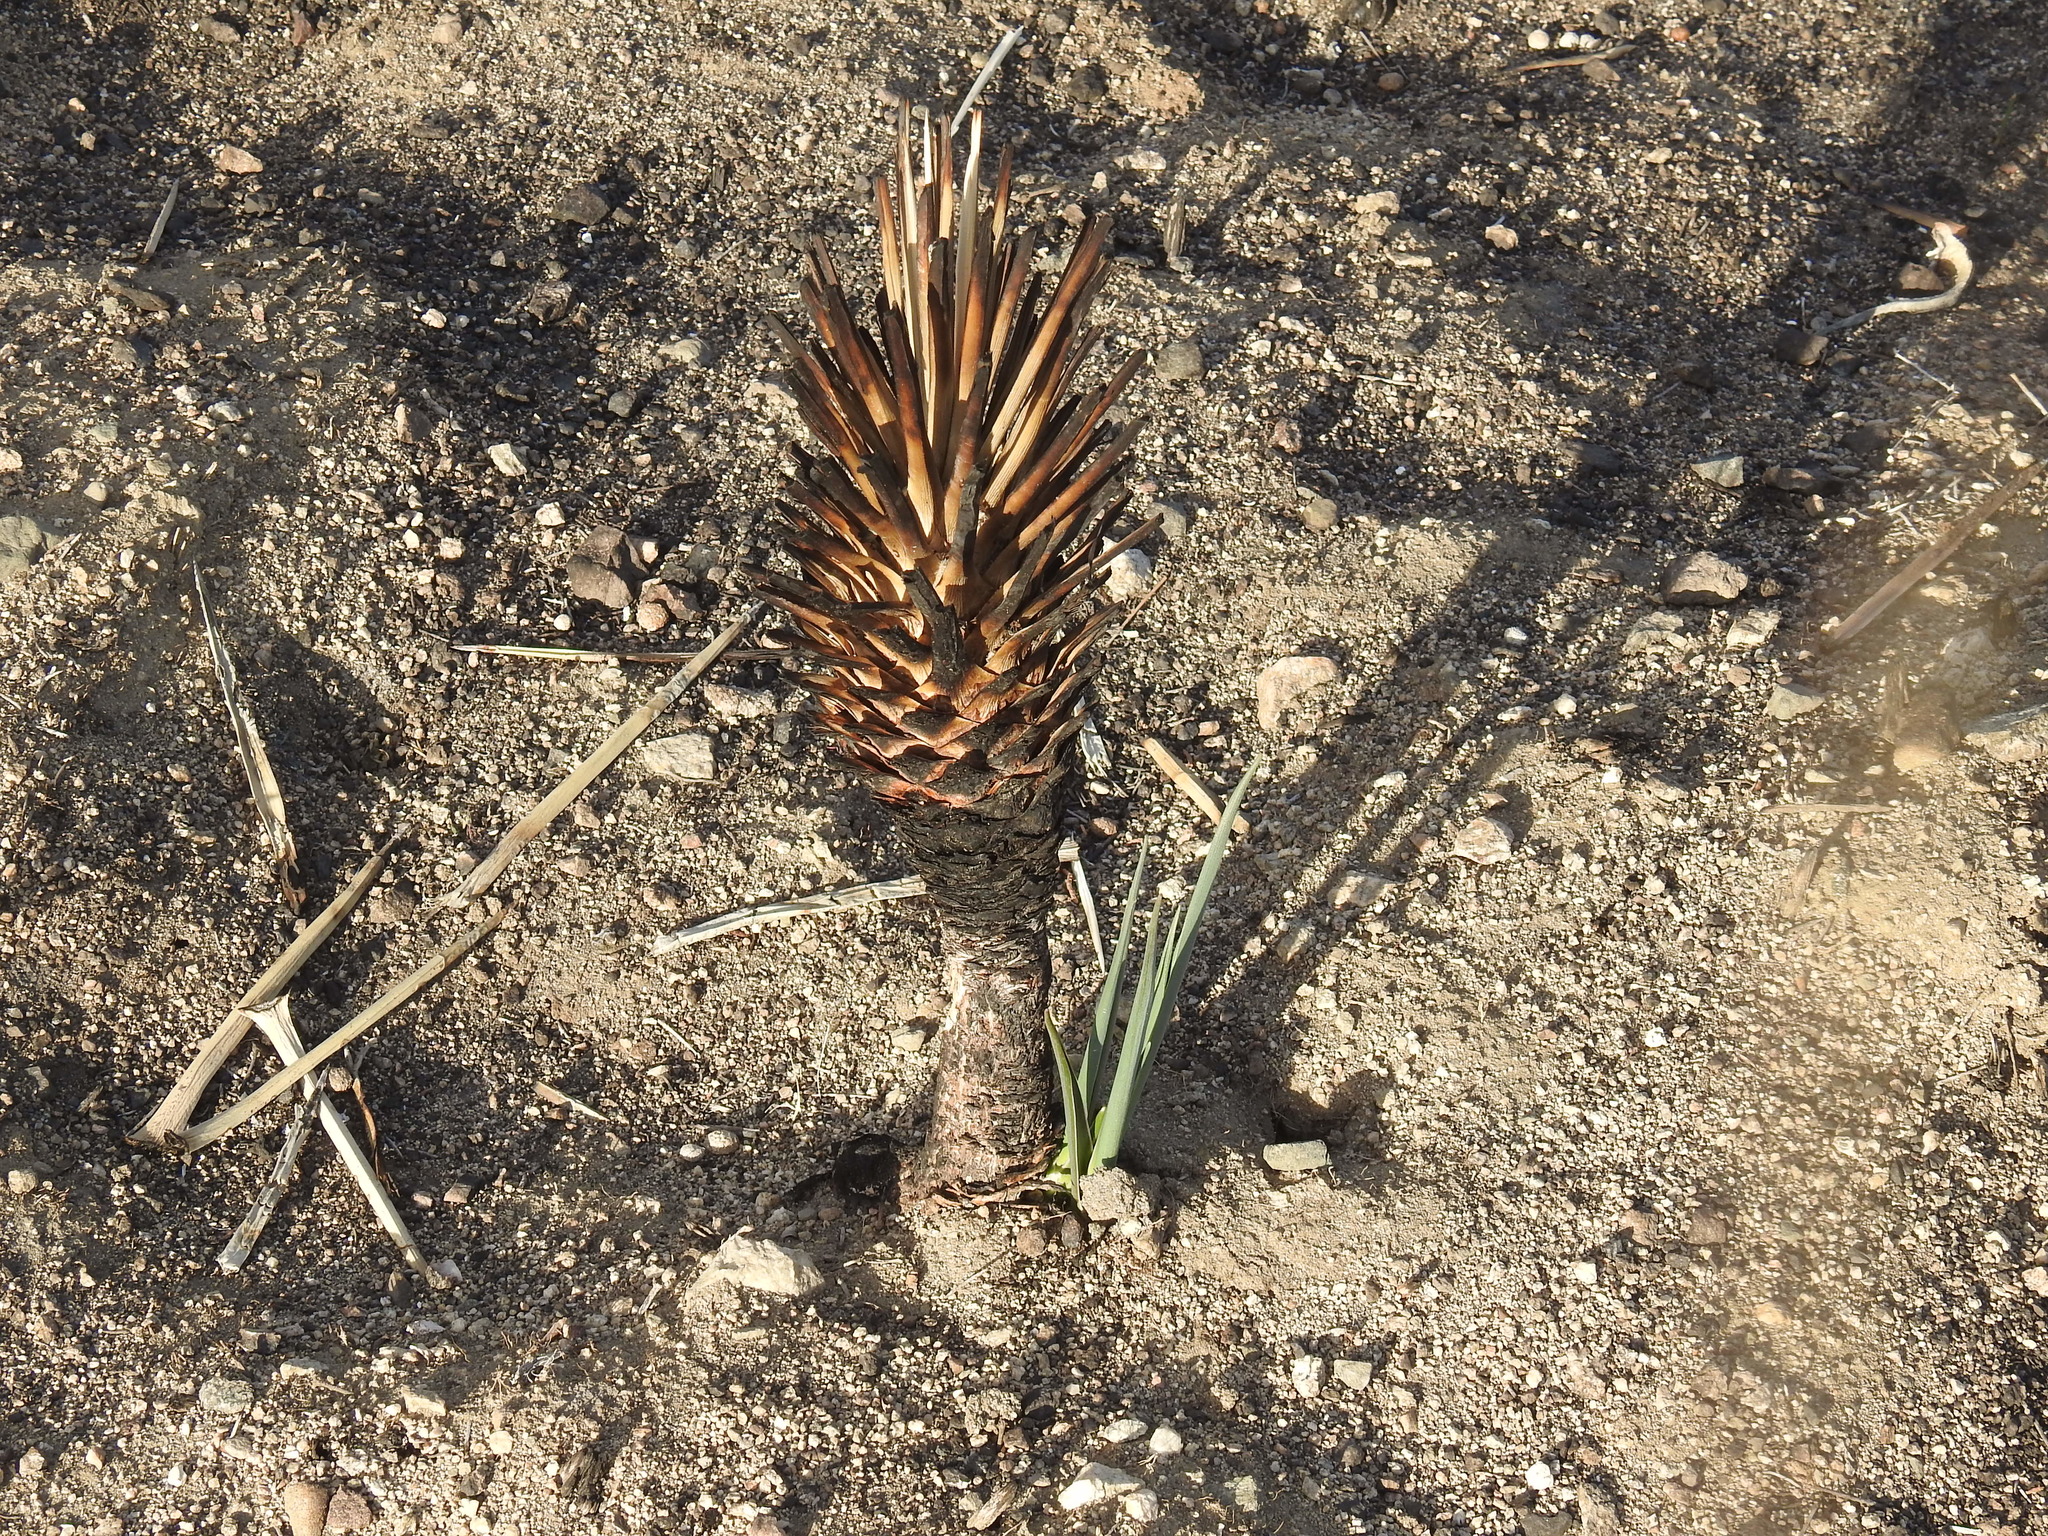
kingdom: Plantae
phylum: Tracheophyta
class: Liliopsida
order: Asparagales
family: Asparagaceae
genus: Yucca
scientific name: Yucca brevifolia
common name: Joshua tree
